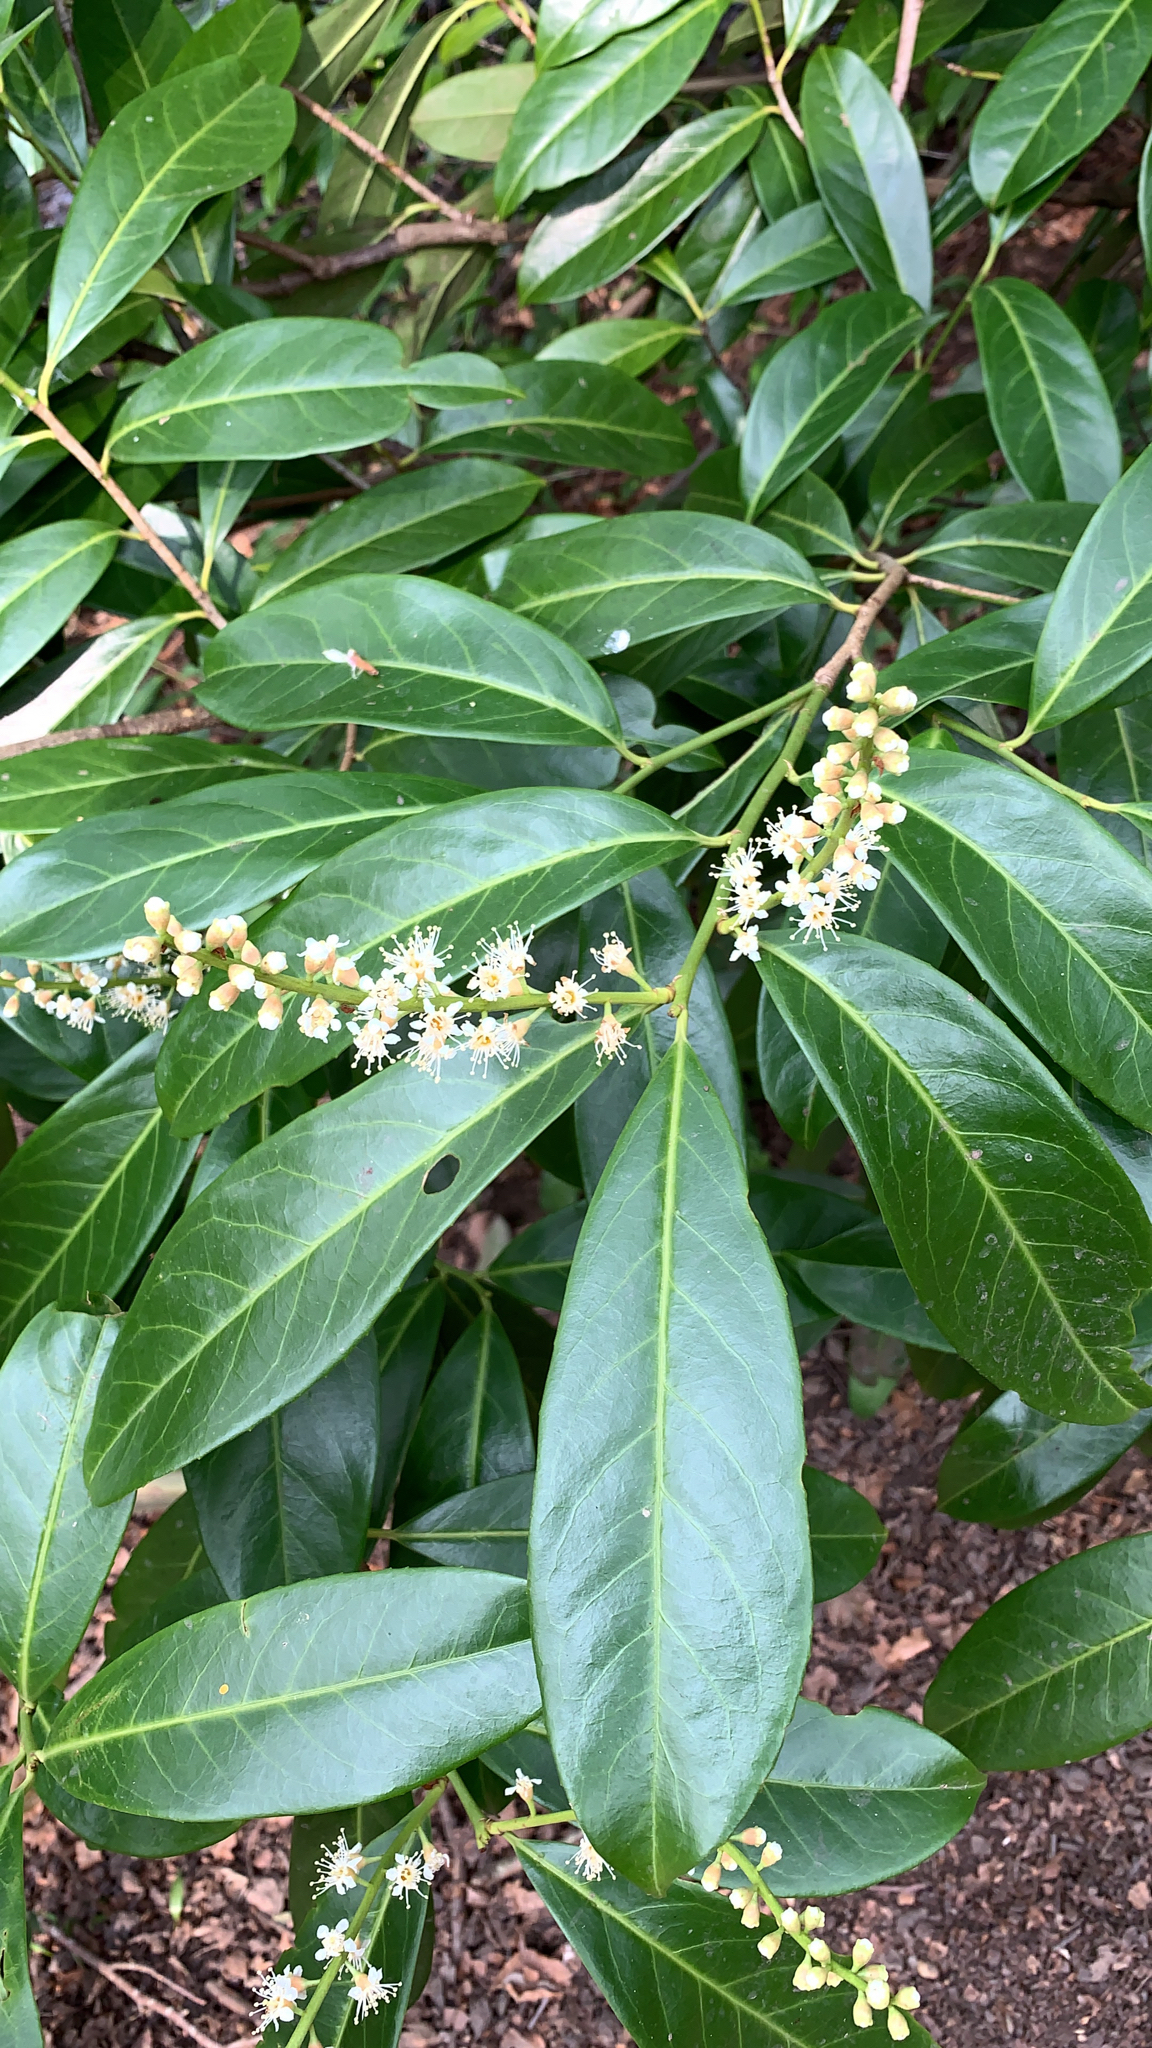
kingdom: Plantae
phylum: Tracheophyta
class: Magnoliopsida
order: Rosales
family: Rosaceae
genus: Prunus
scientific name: Prunus laurocerasus
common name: Cherry laurel
